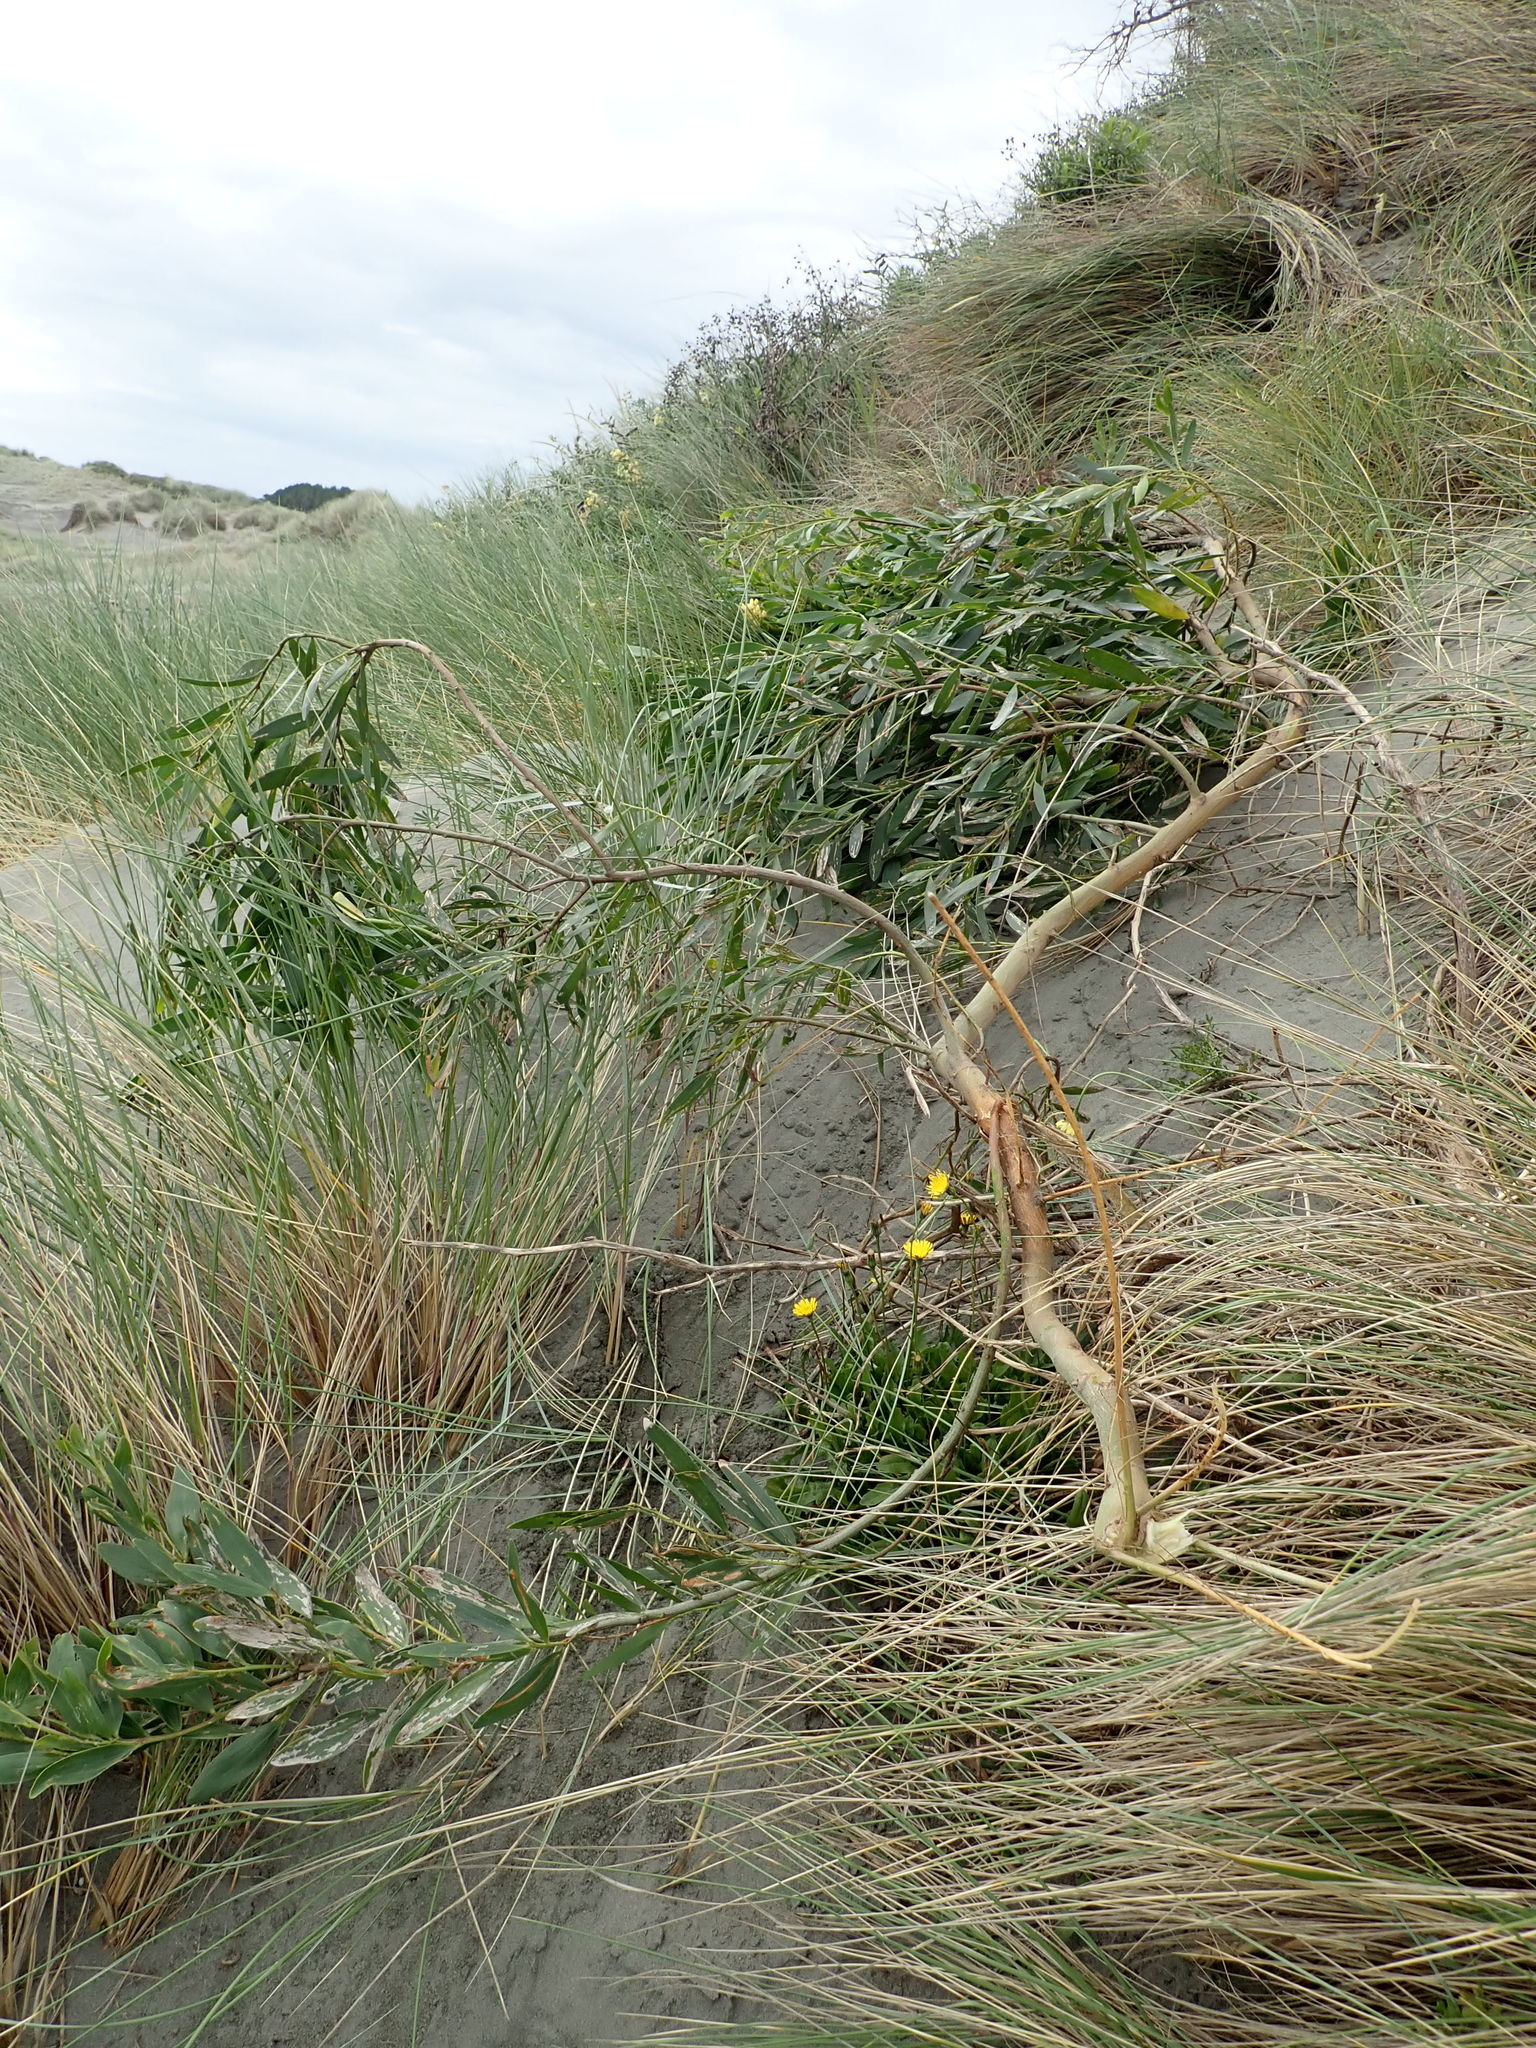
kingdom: Plantae
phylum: Tracheophyta
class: Magnoliopsida
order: Fabales
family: Fabaceae
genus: Acacia
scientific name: Acacia longifolia
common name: Sydney golden wattle
